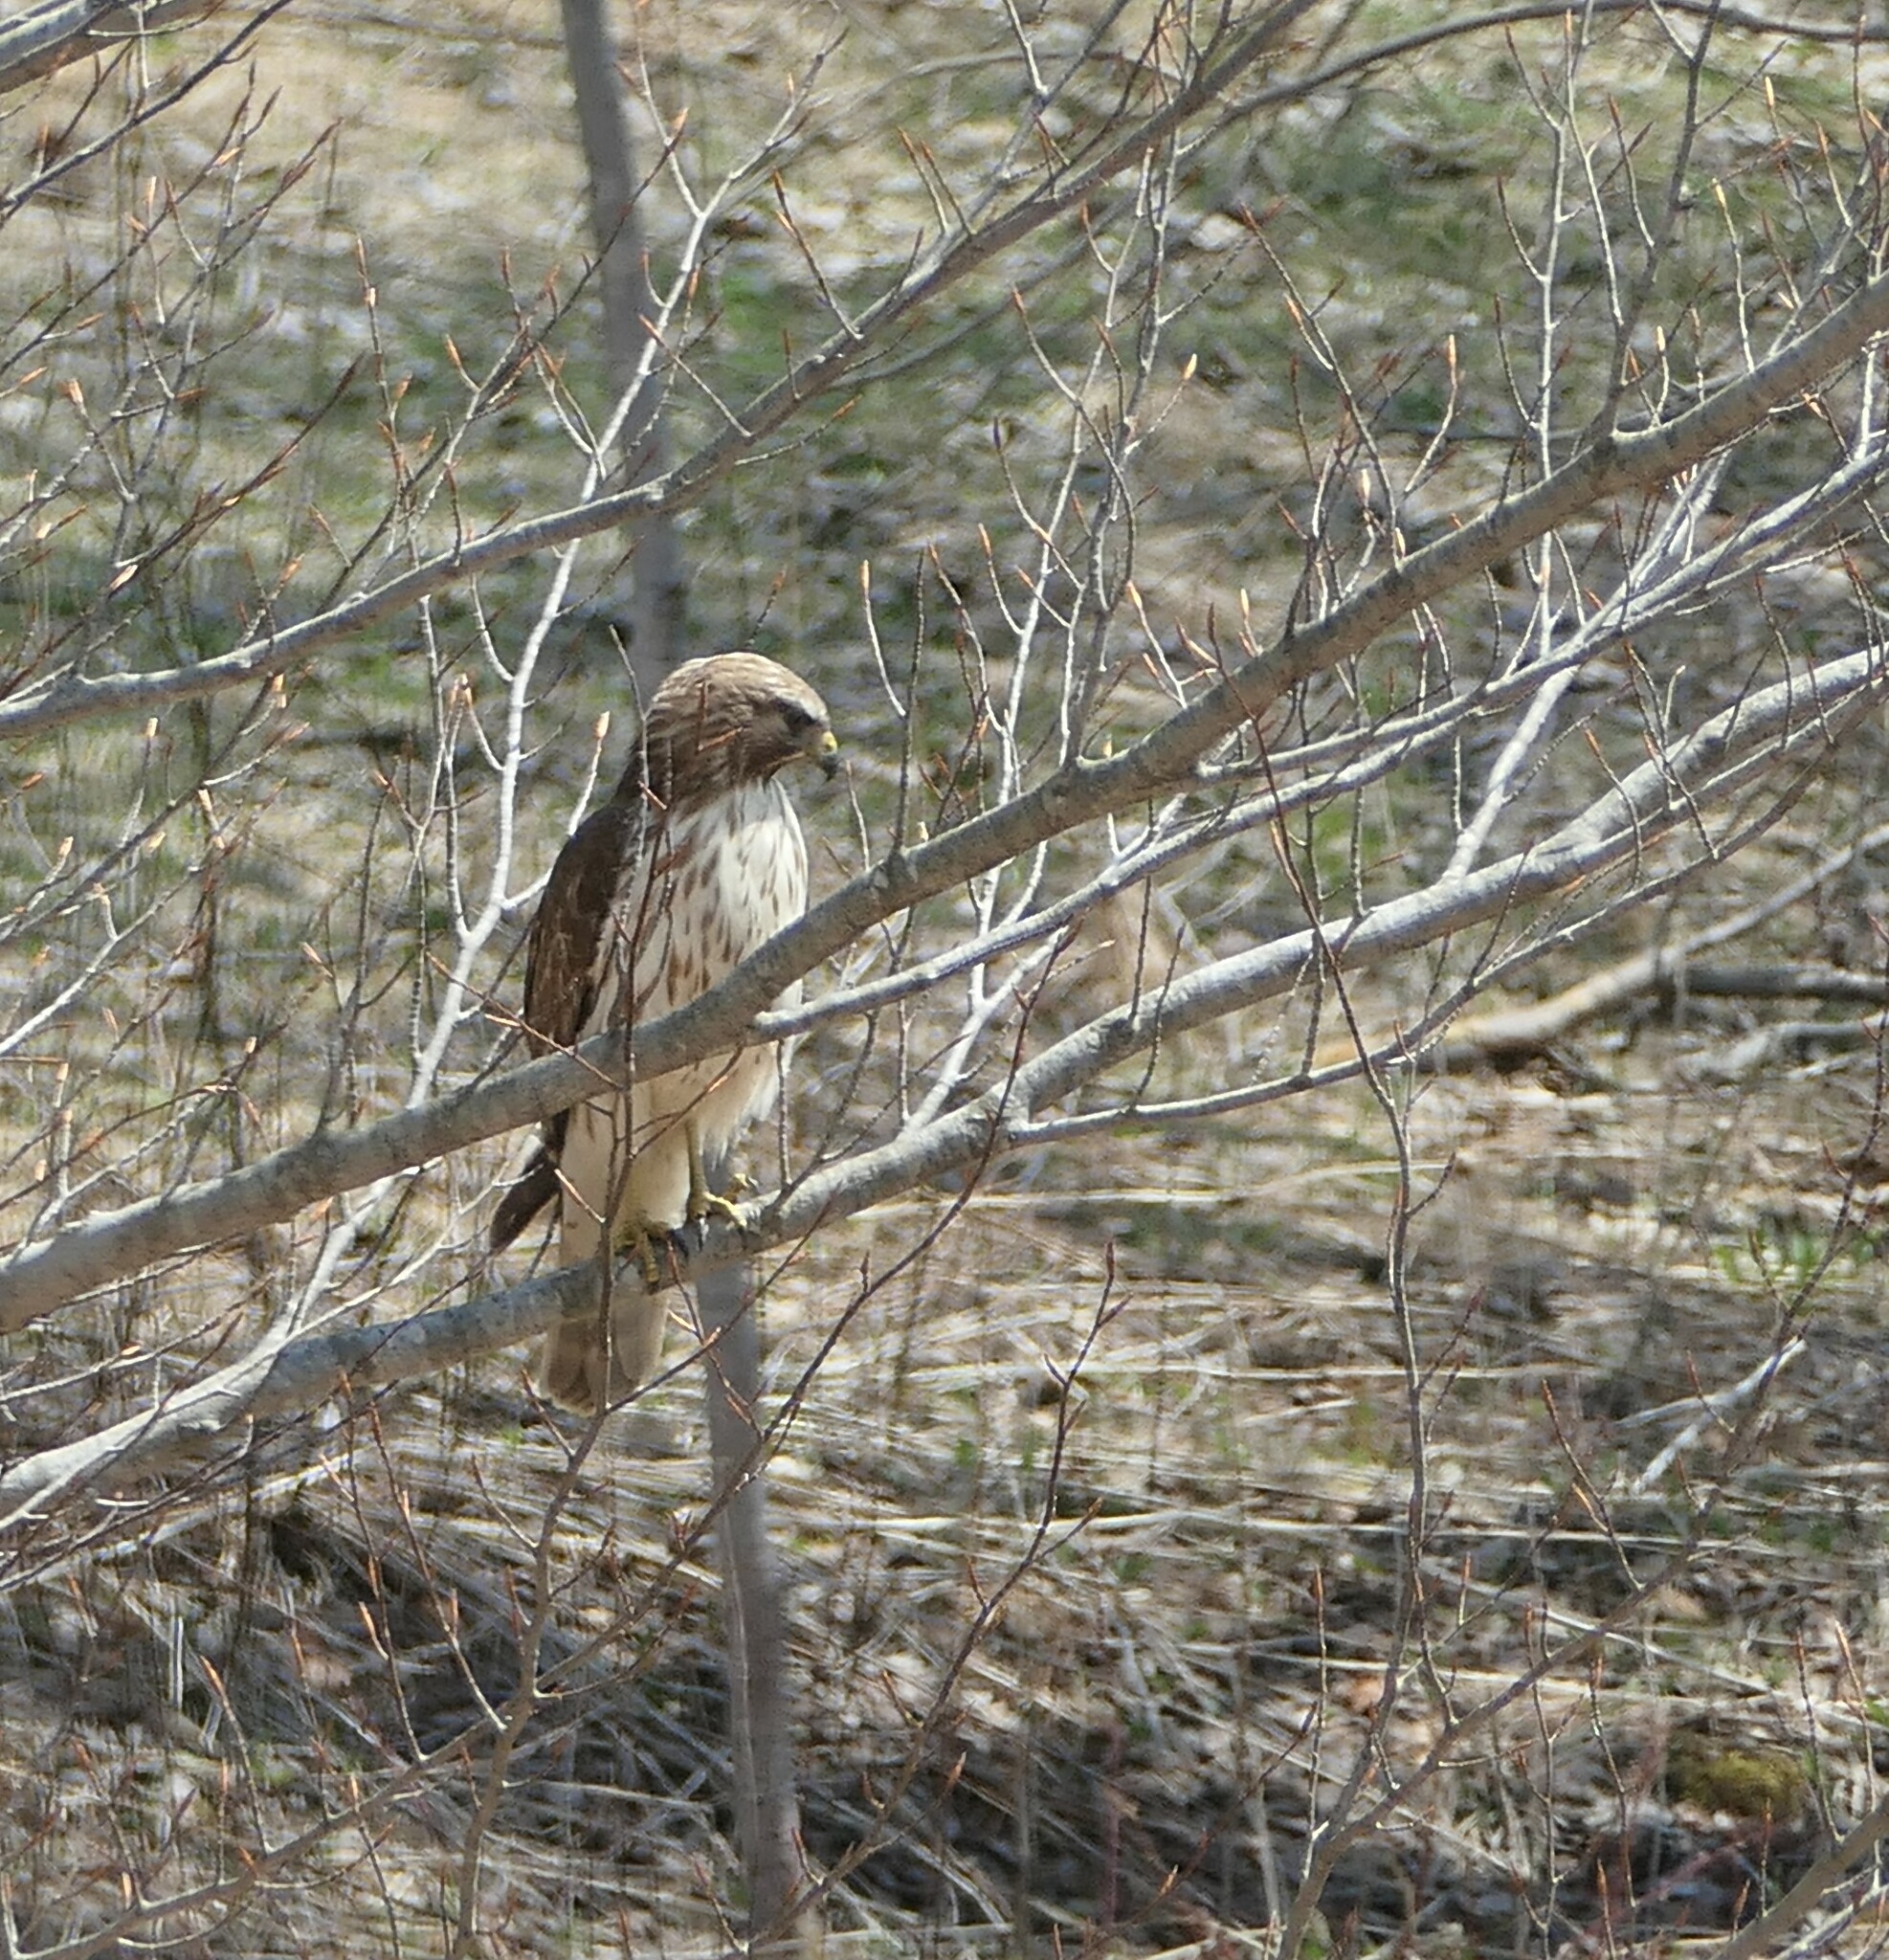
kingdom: Animalia
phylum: Chordata
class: Aves
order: Accipitriformes
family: Accipitridae
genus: Buteo
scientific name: Buteo platypterus
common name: Broad-winged hawk
